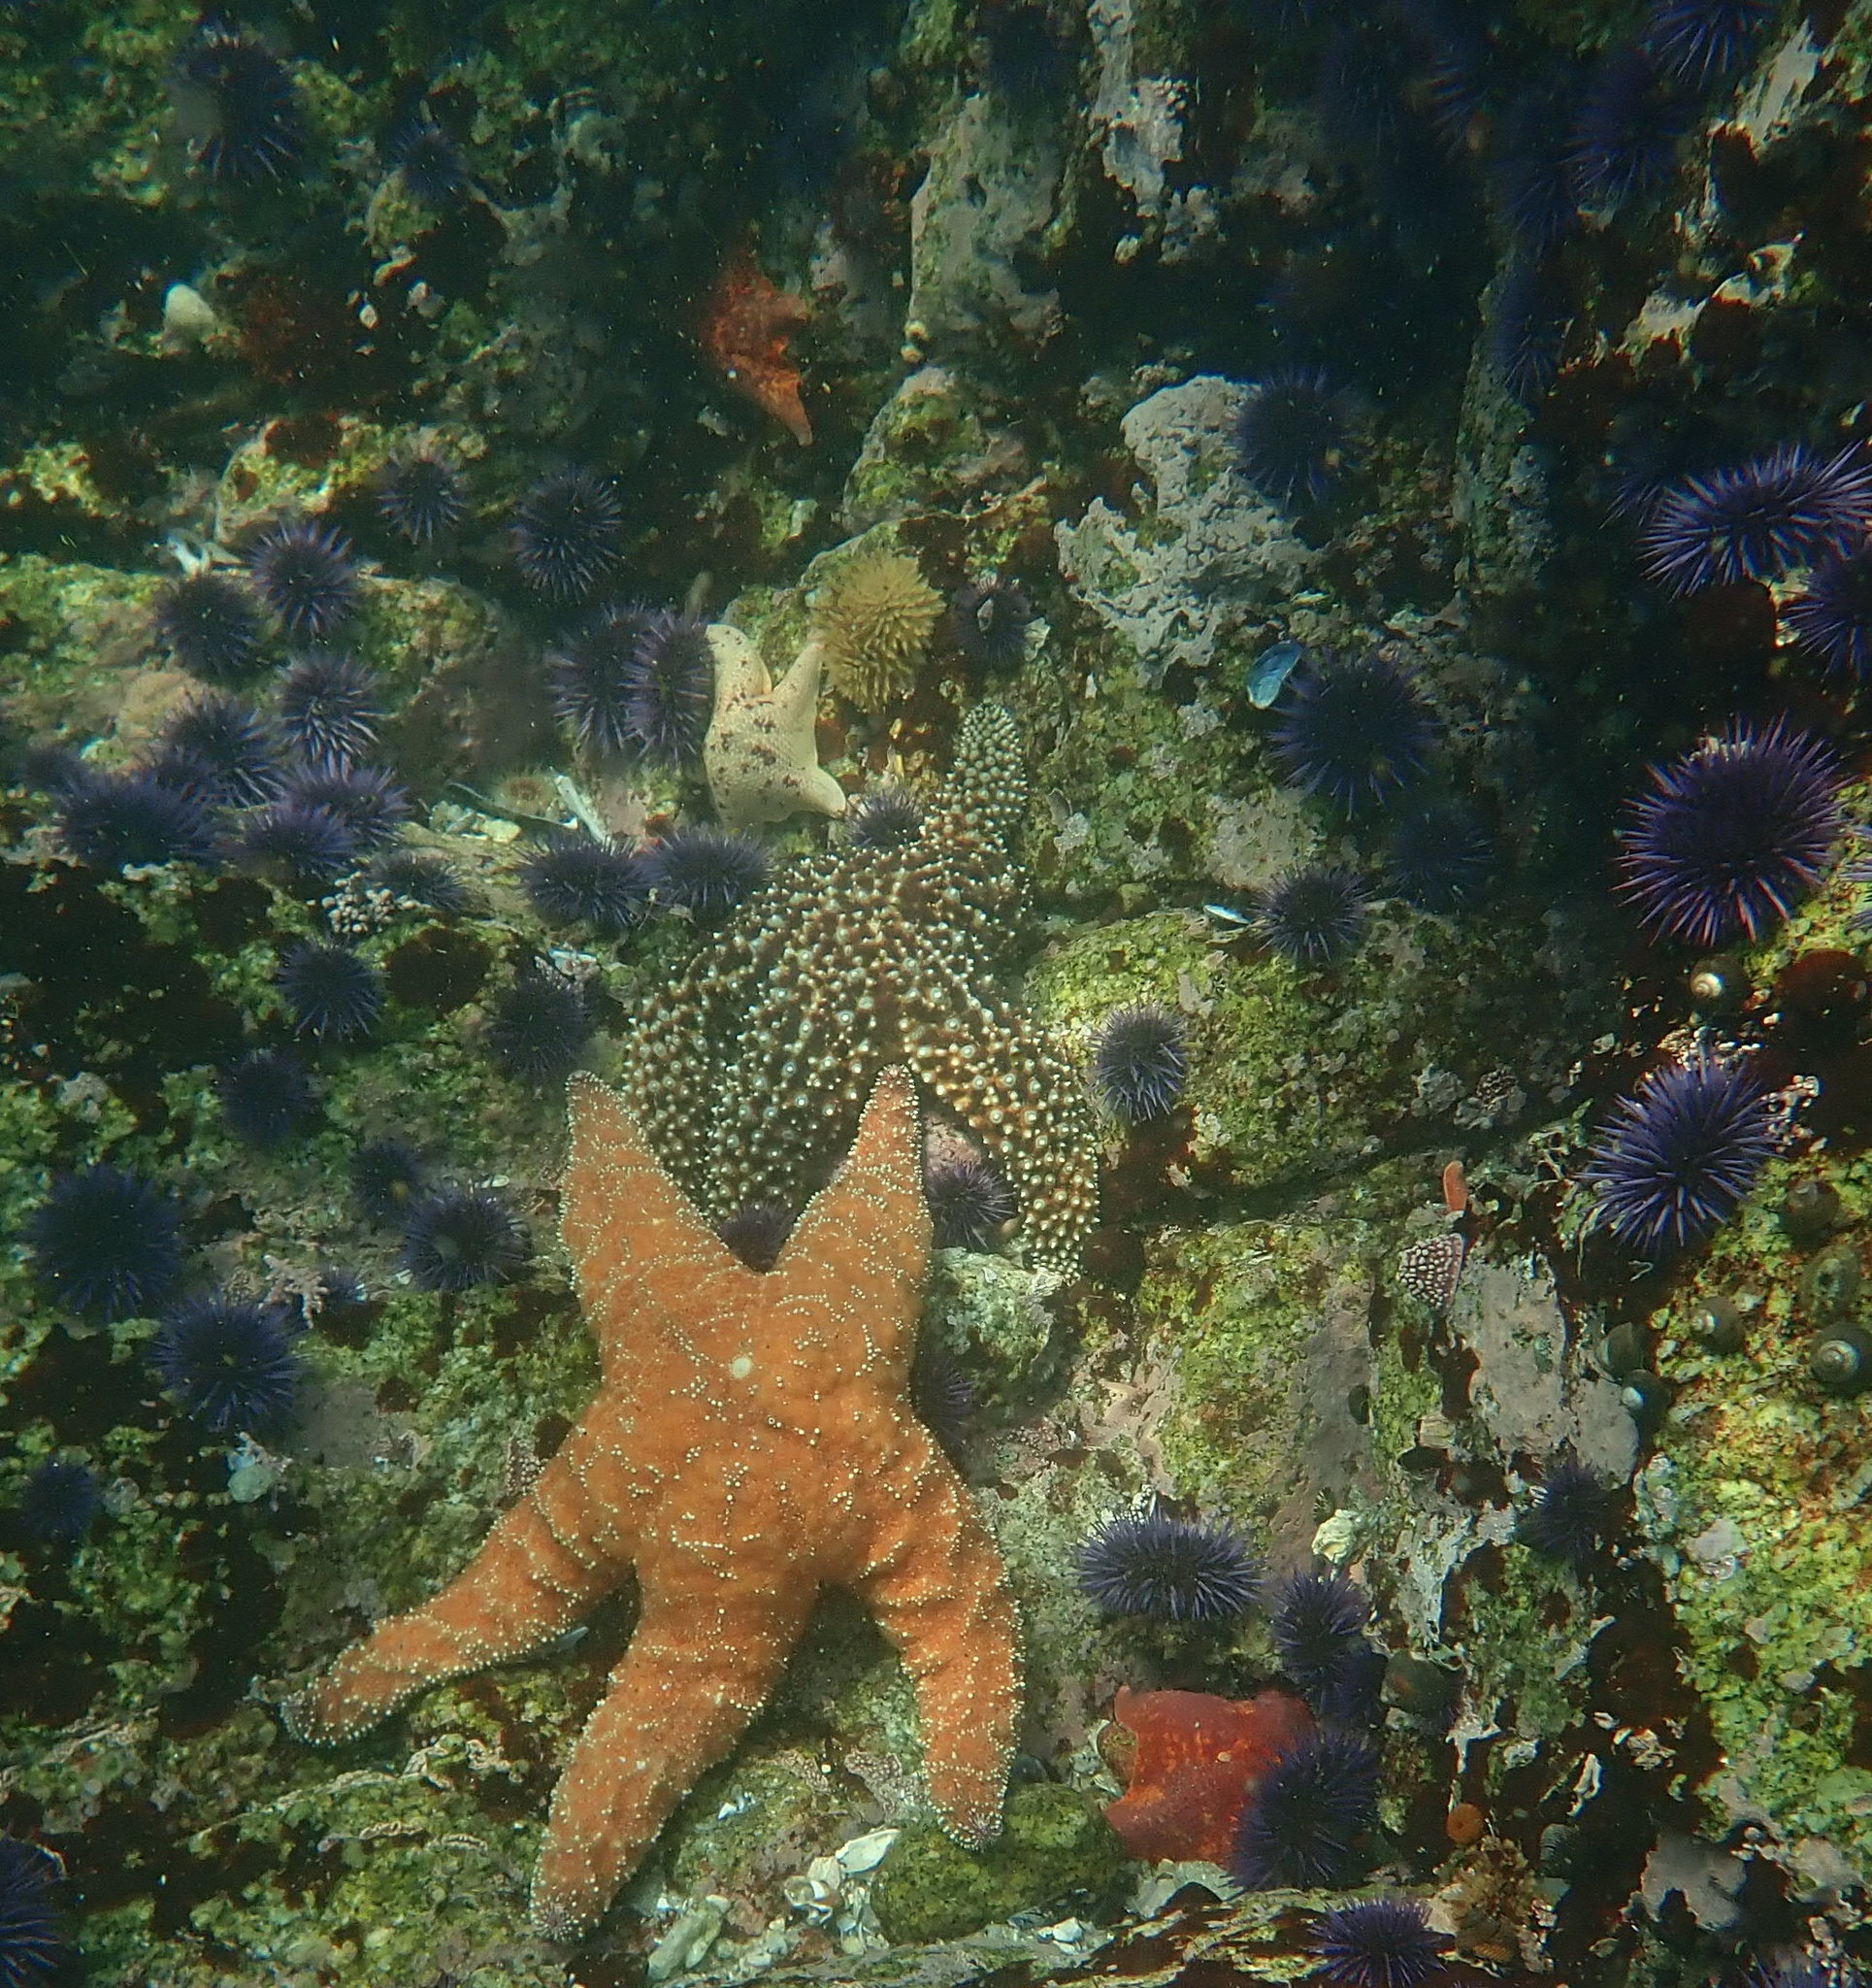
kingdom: Animalia
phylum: Echinodermata
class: Asteroidea
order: Valvatida
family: Asterinidae
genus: Patiria
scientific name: Patiria miniata
